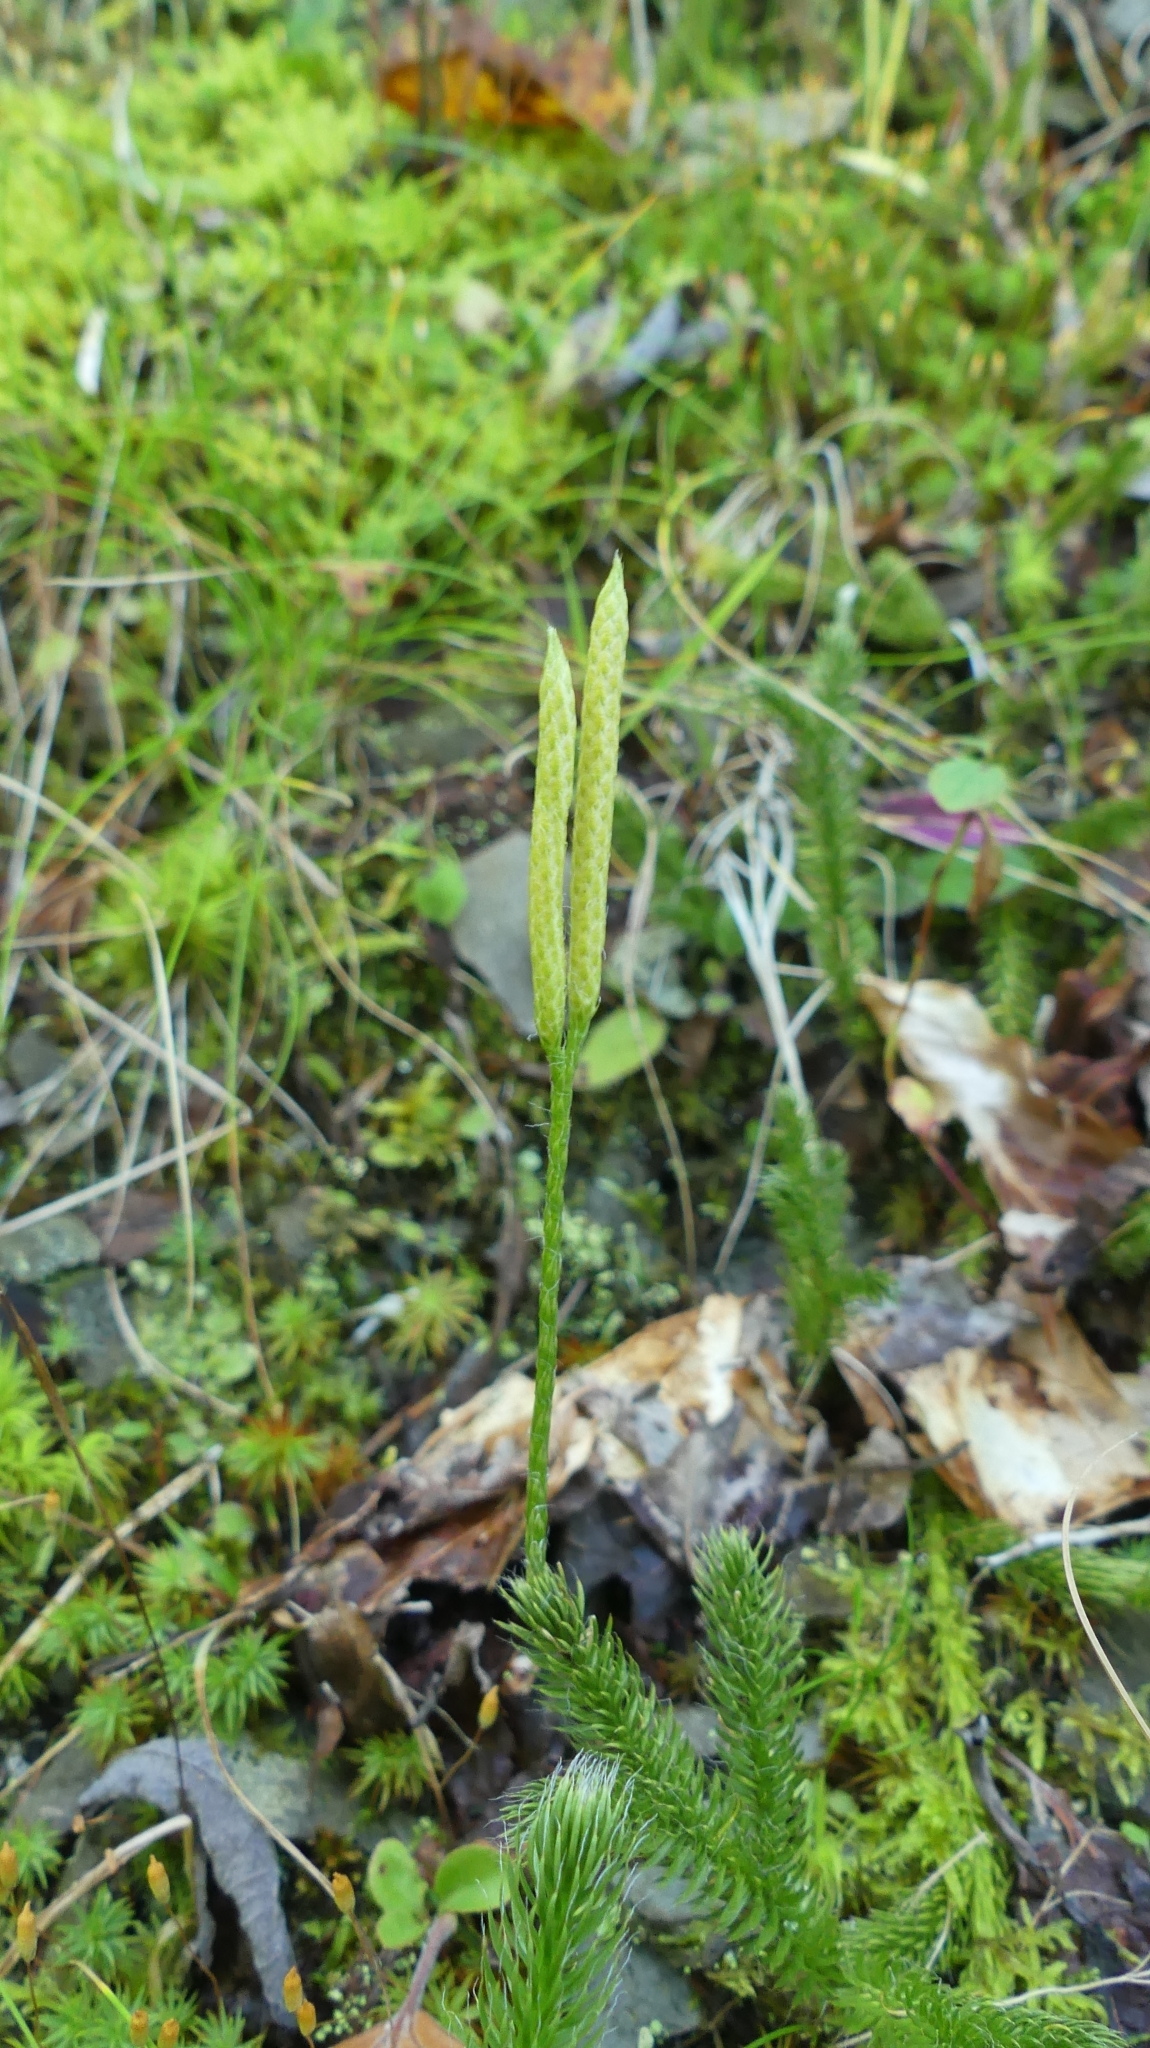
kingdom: Plantae
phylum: Tracheophyta
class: Lycopodiopsida
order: Lycopodiales
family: Lycopodiaceae
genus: Lycopodium
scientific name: Lycopodium clavatum
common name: Stag's-horn clubmoss
